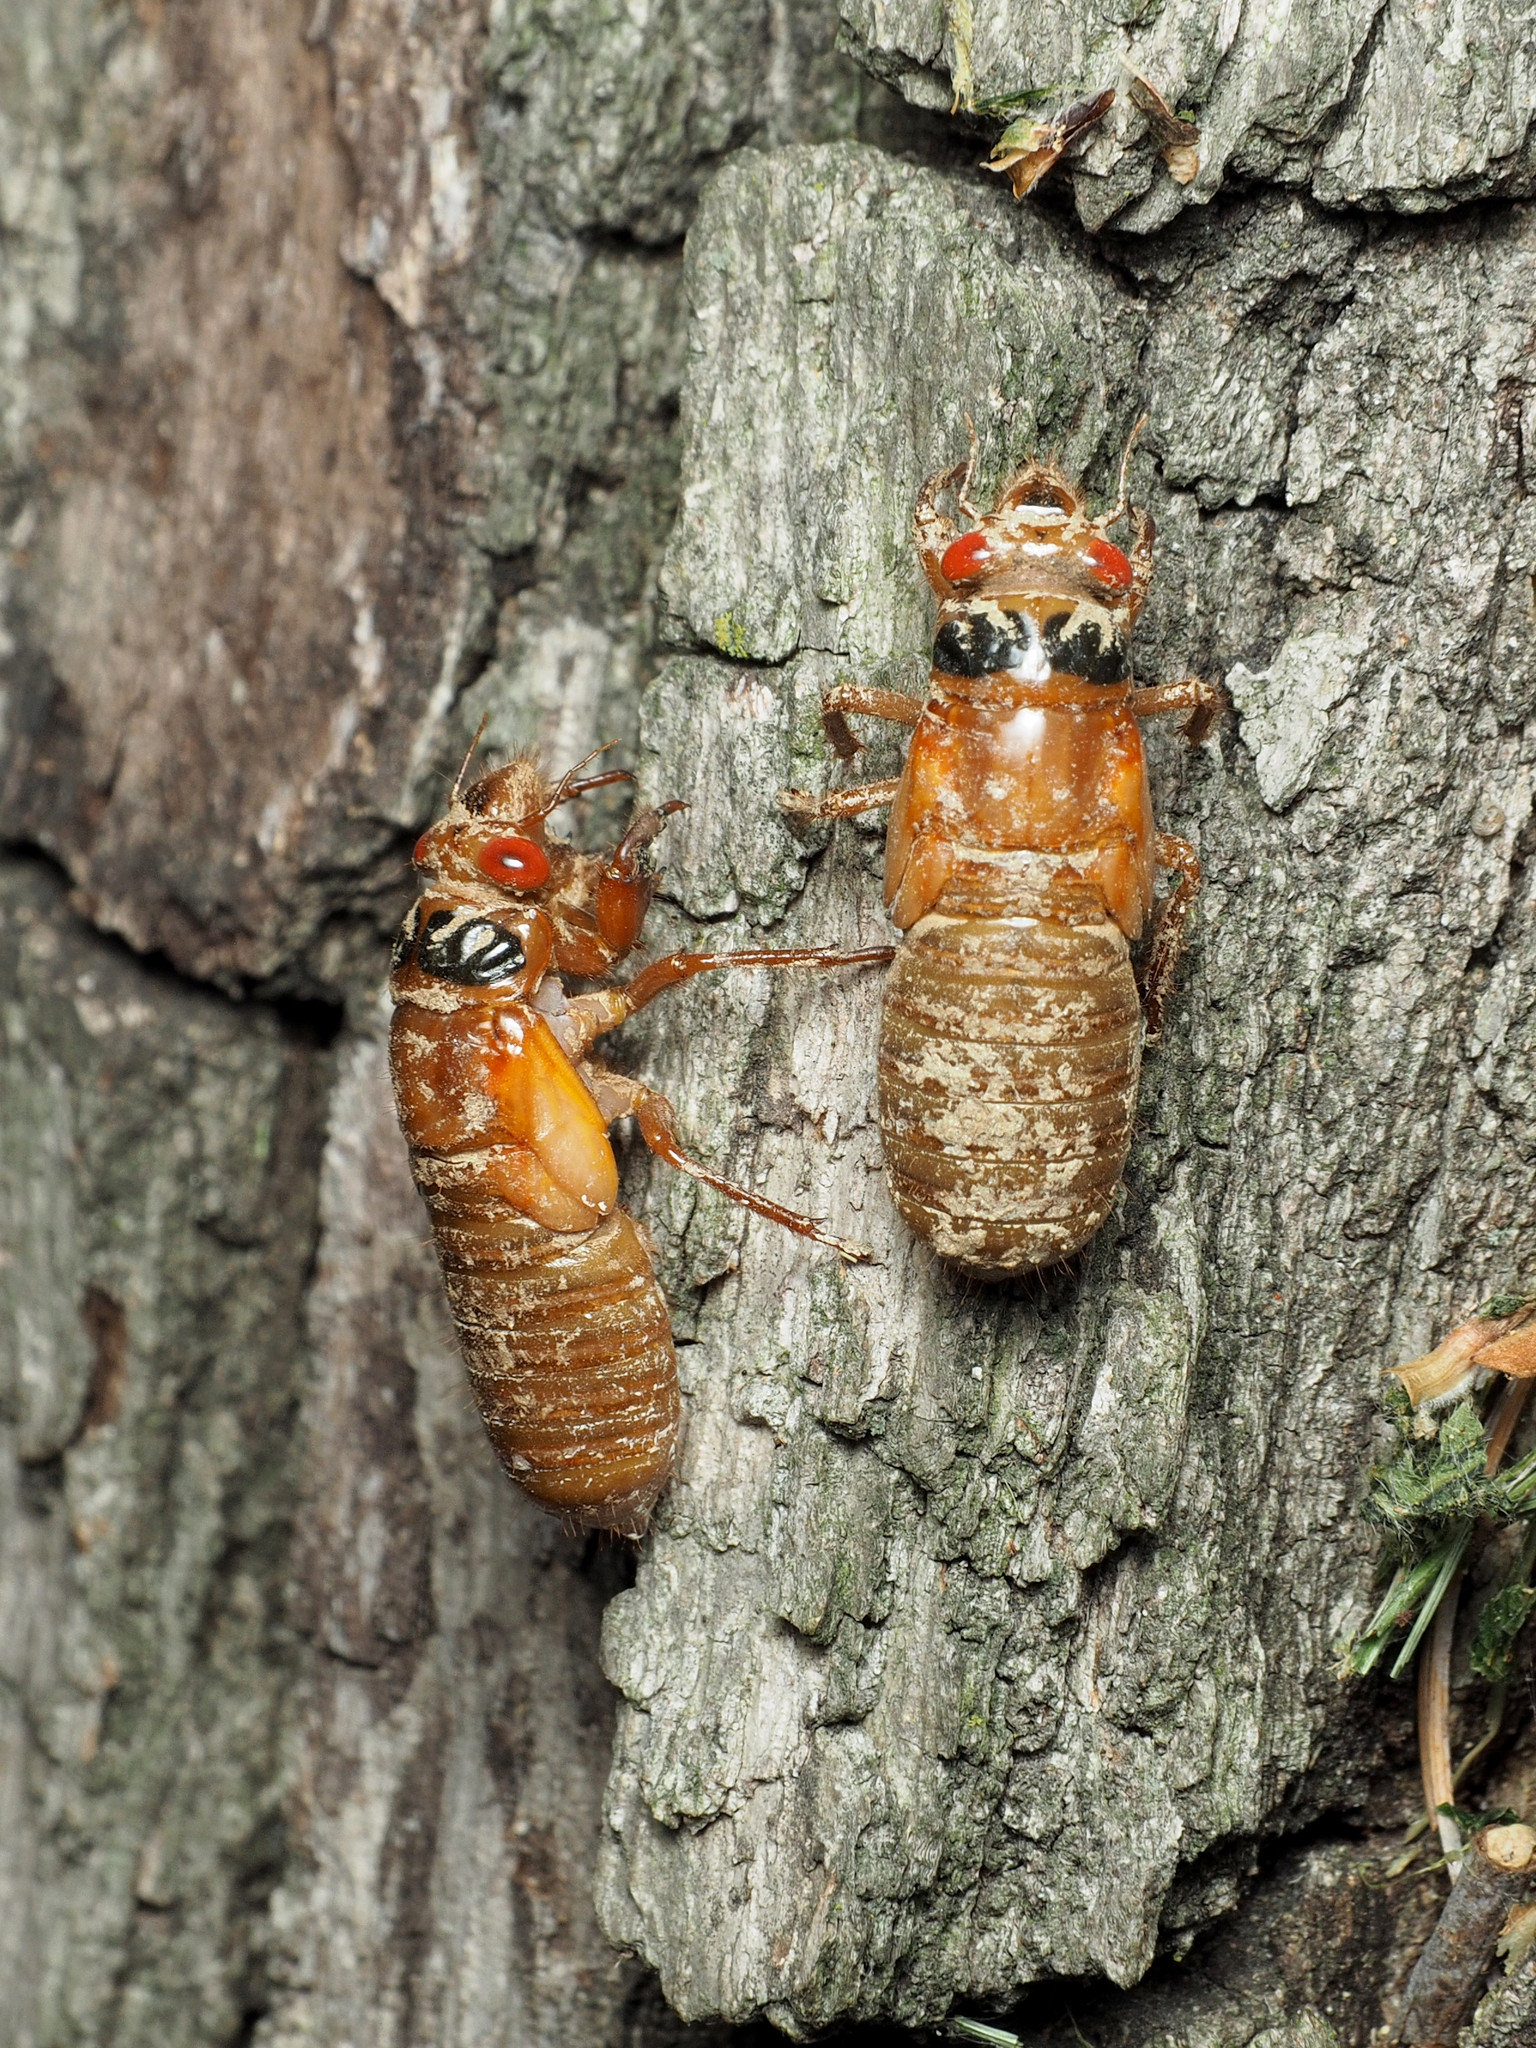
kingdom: Animalia
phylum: Arthropoda
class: Insecta
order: Hemiptera
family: Cicadidae
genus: Magicicada
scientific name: Magicicada
